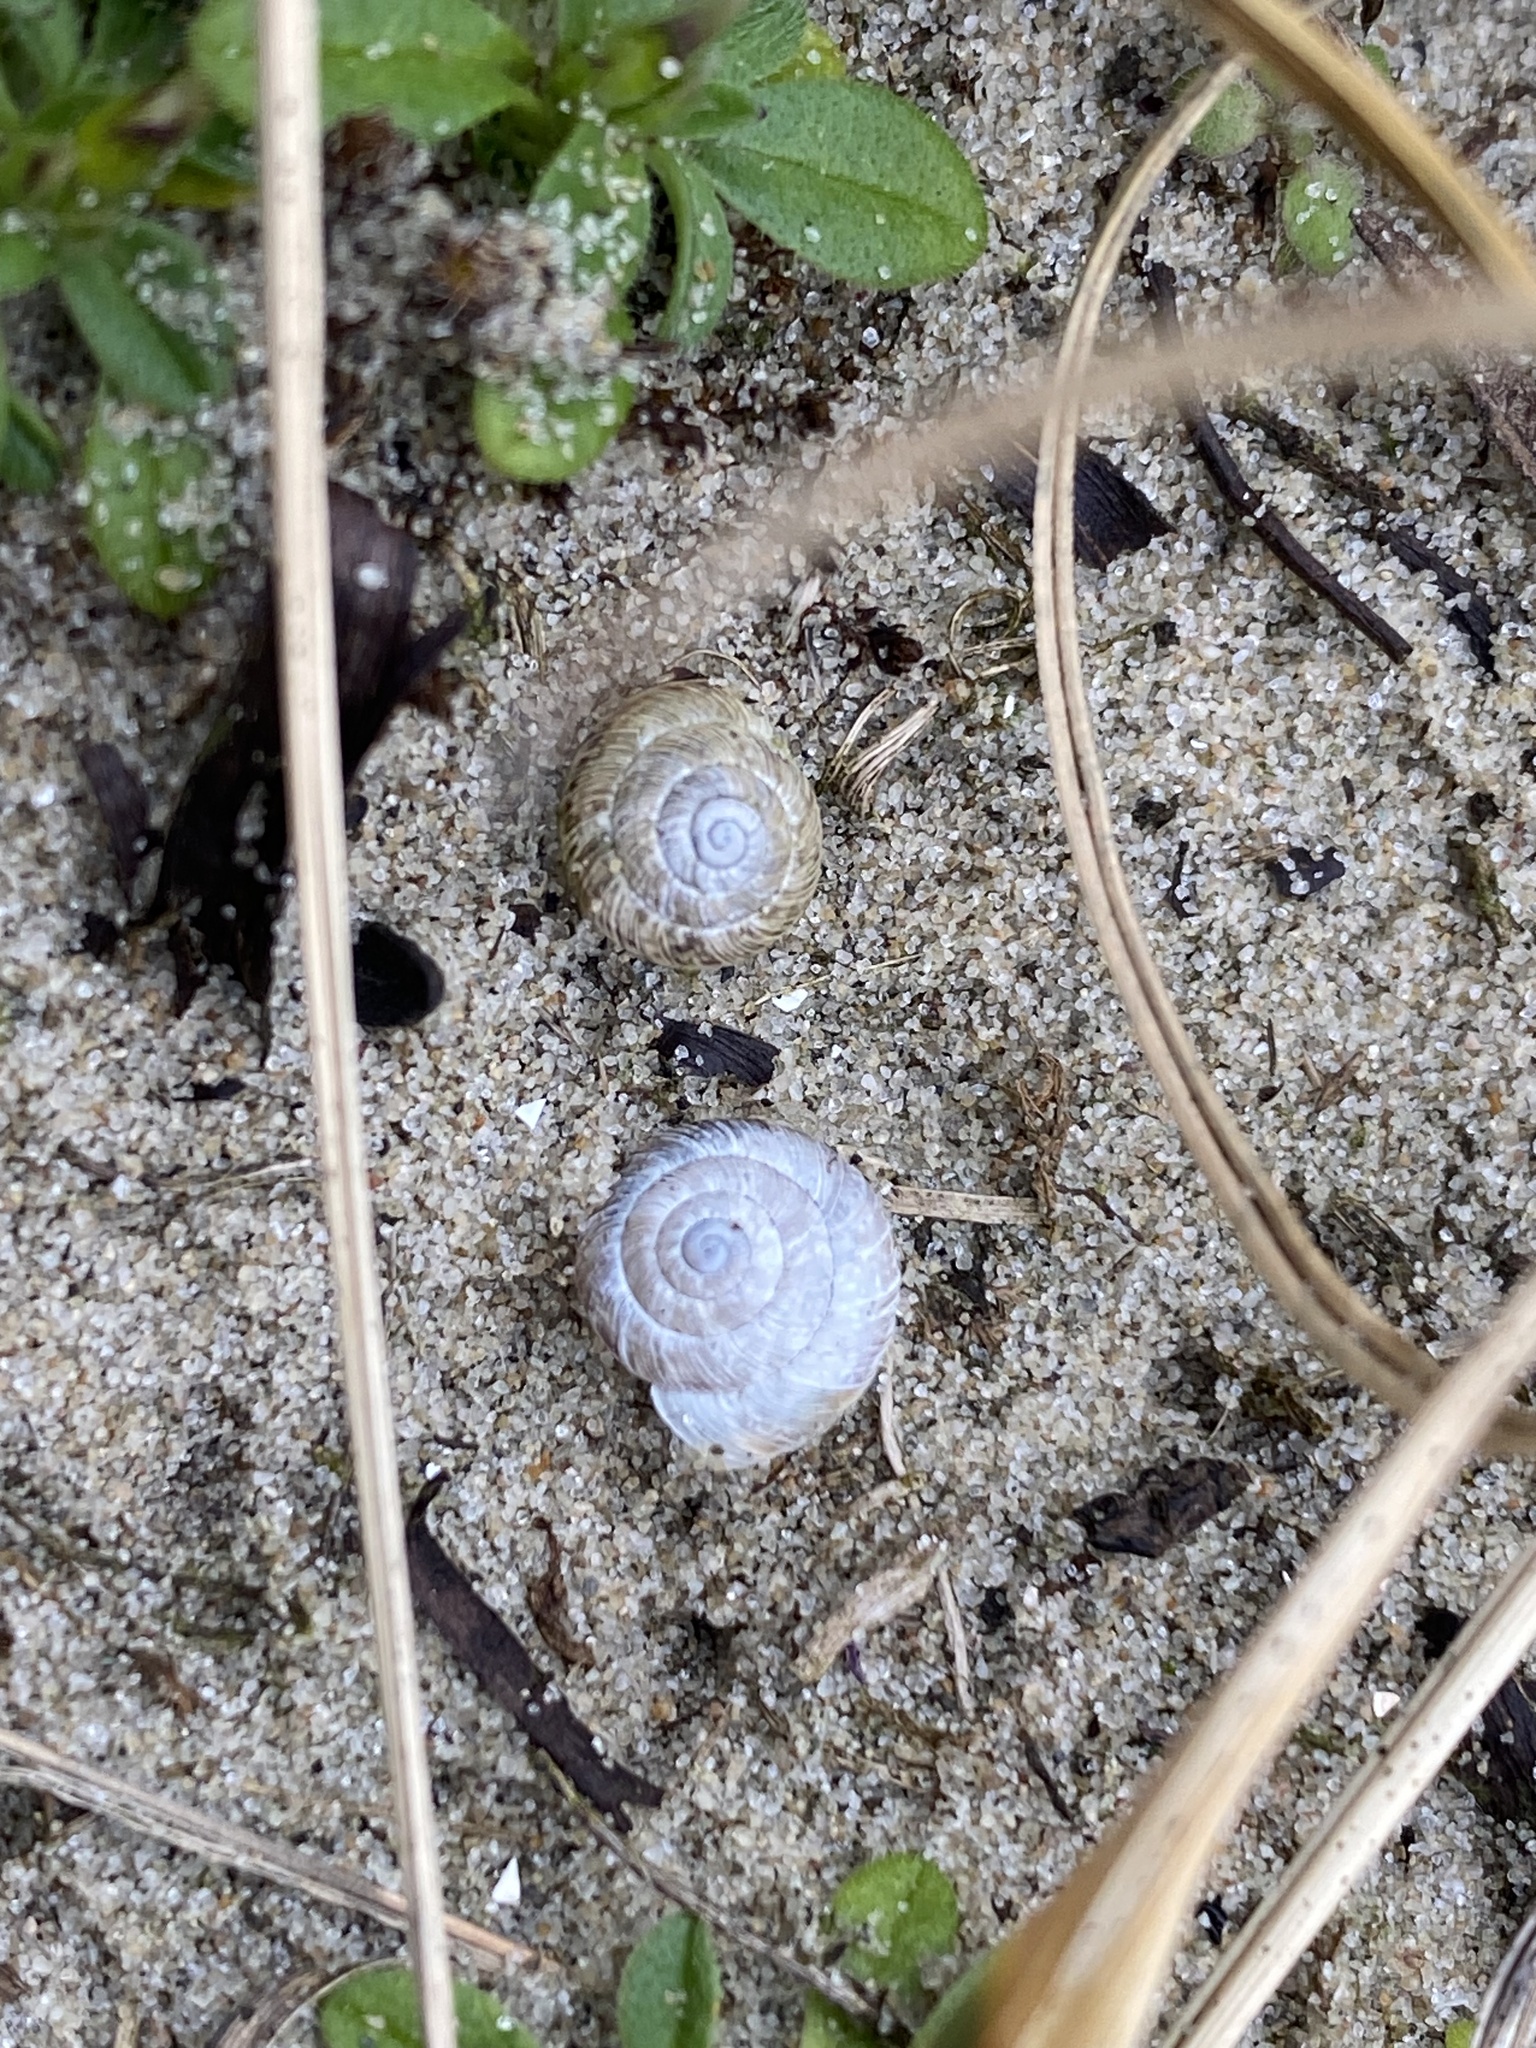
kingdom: Animalia
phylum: Mollusca
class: Gastropoda
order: Stylommatophora
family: Geomitridae
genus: Xeroplexa
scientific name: Xeroplexa intersecta
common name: Wrinkled snail
